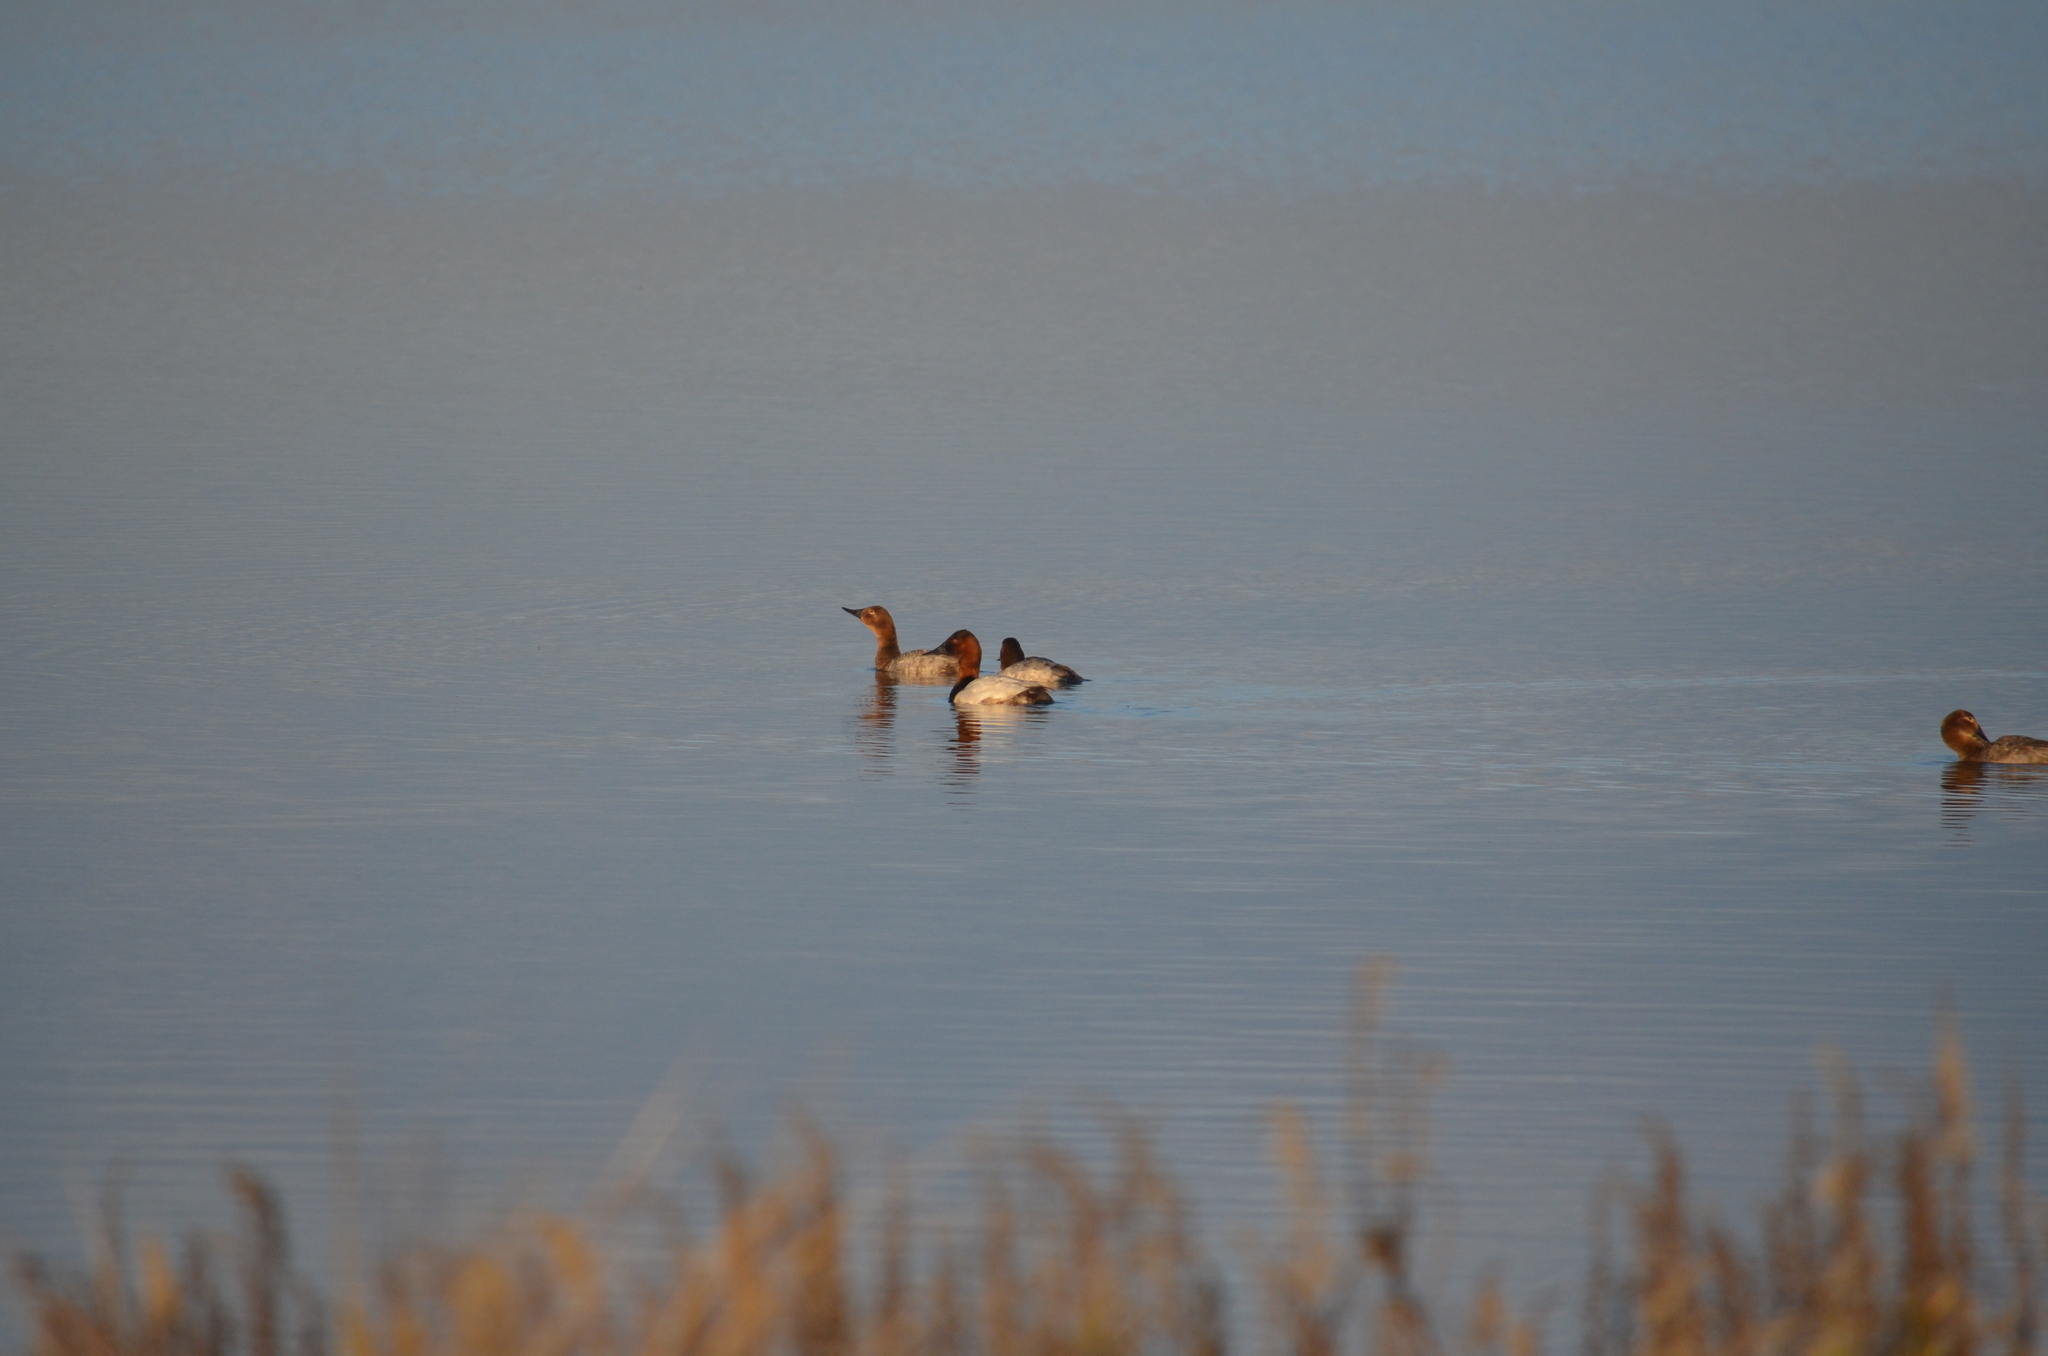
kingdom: Animalia
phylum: Chordata
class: Aves
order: Anseriformes
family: Anatidae
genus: Aythya
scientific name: Aythya valisineria
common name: Canvasback
